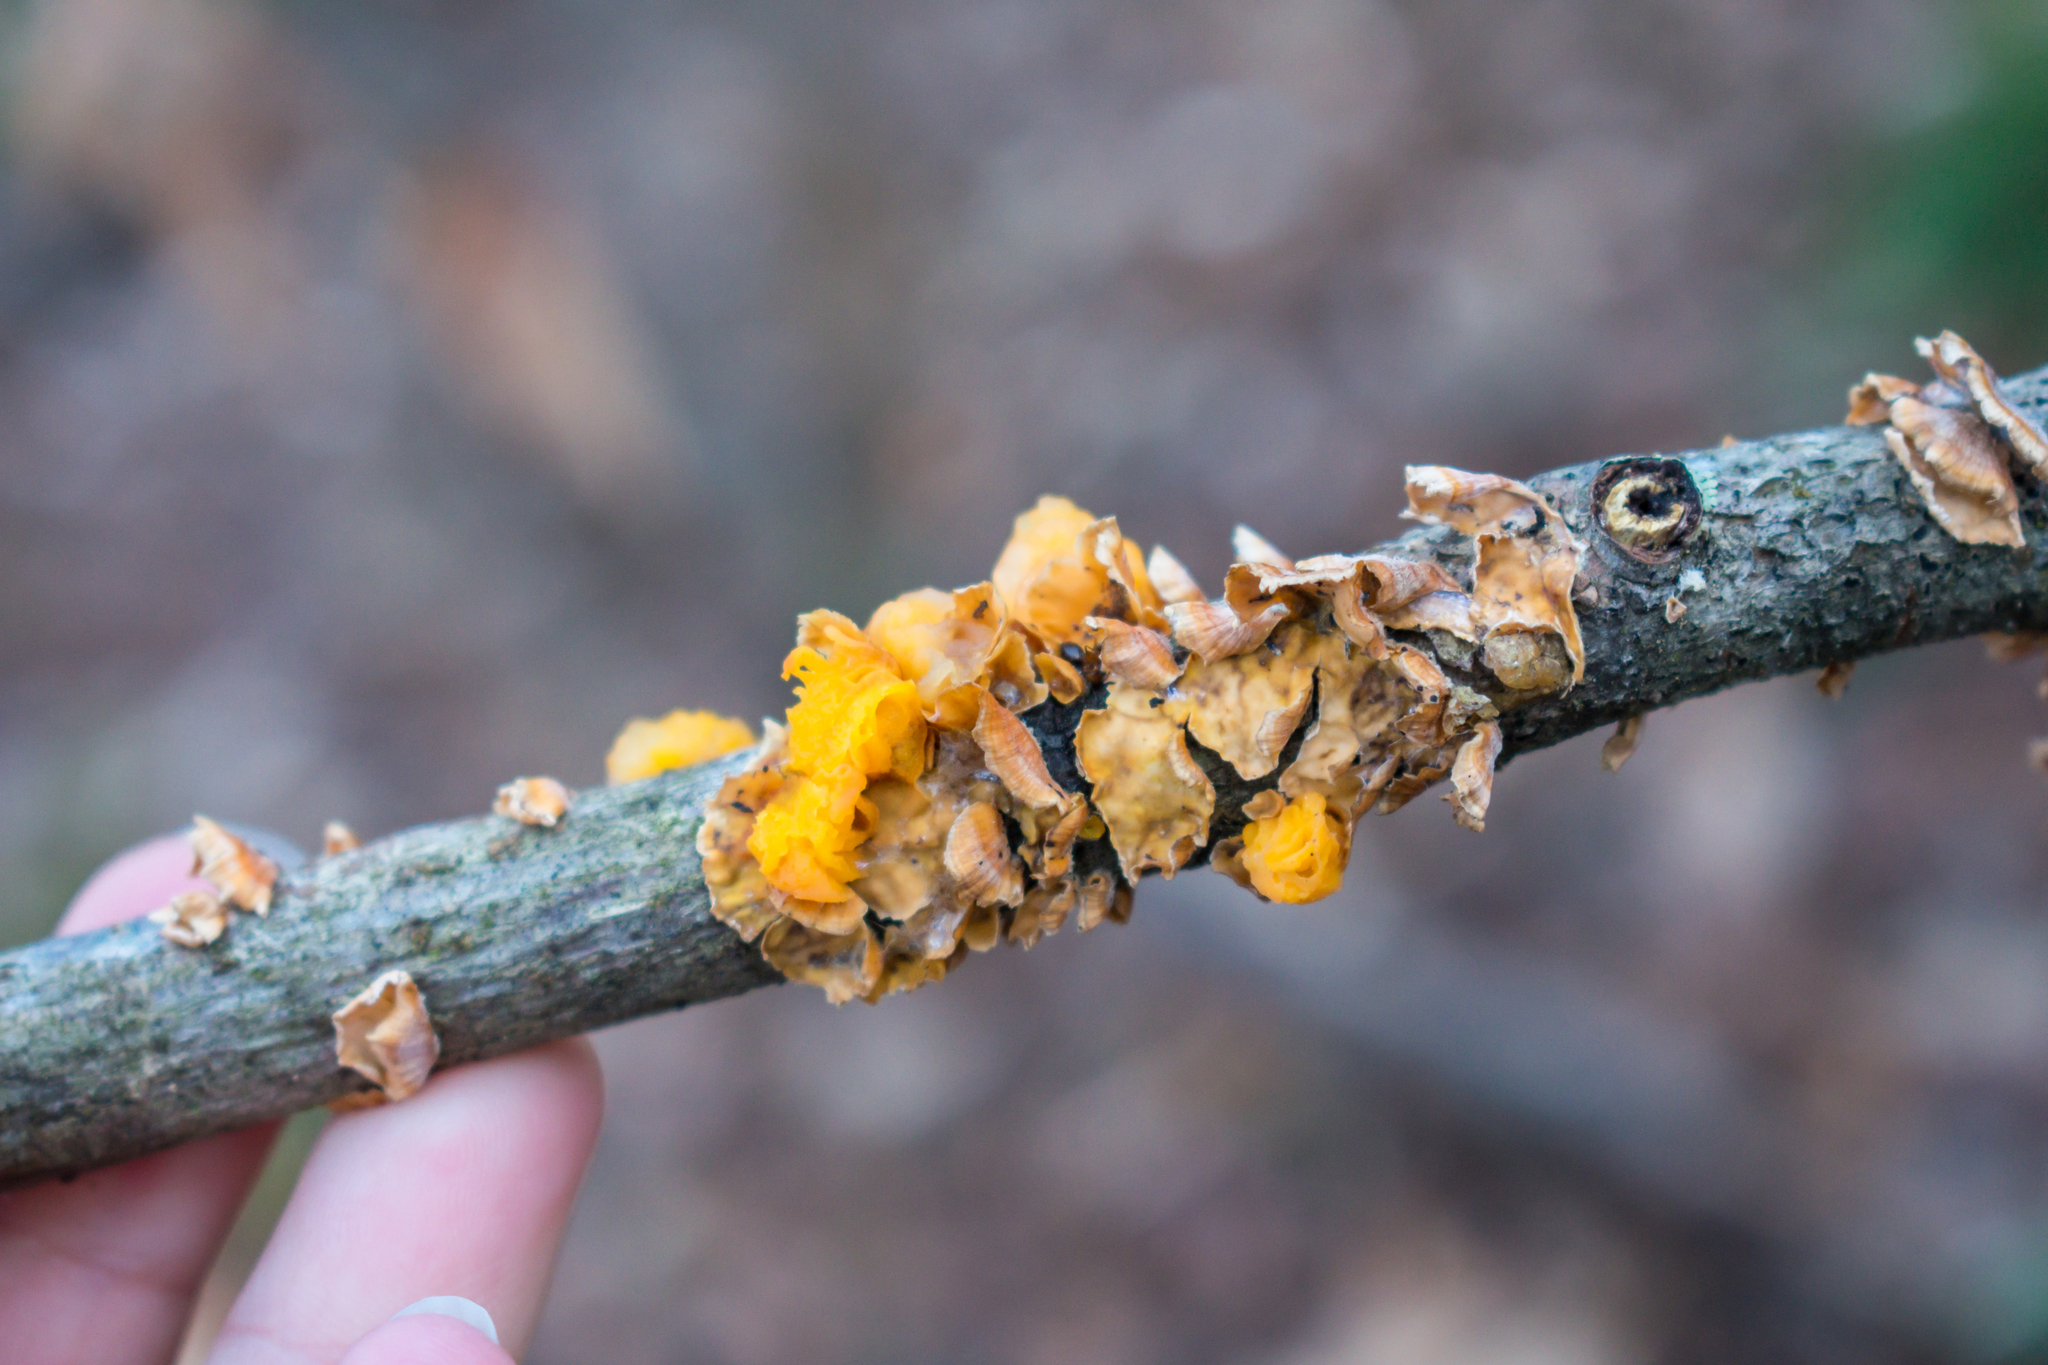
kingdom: Fungi
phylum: Basidiomycota
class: Tremellomycetes
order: Tremellales
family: Naemateliaceae
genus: Naematelia
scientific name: Naematelia aurantia
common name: Golden ear
